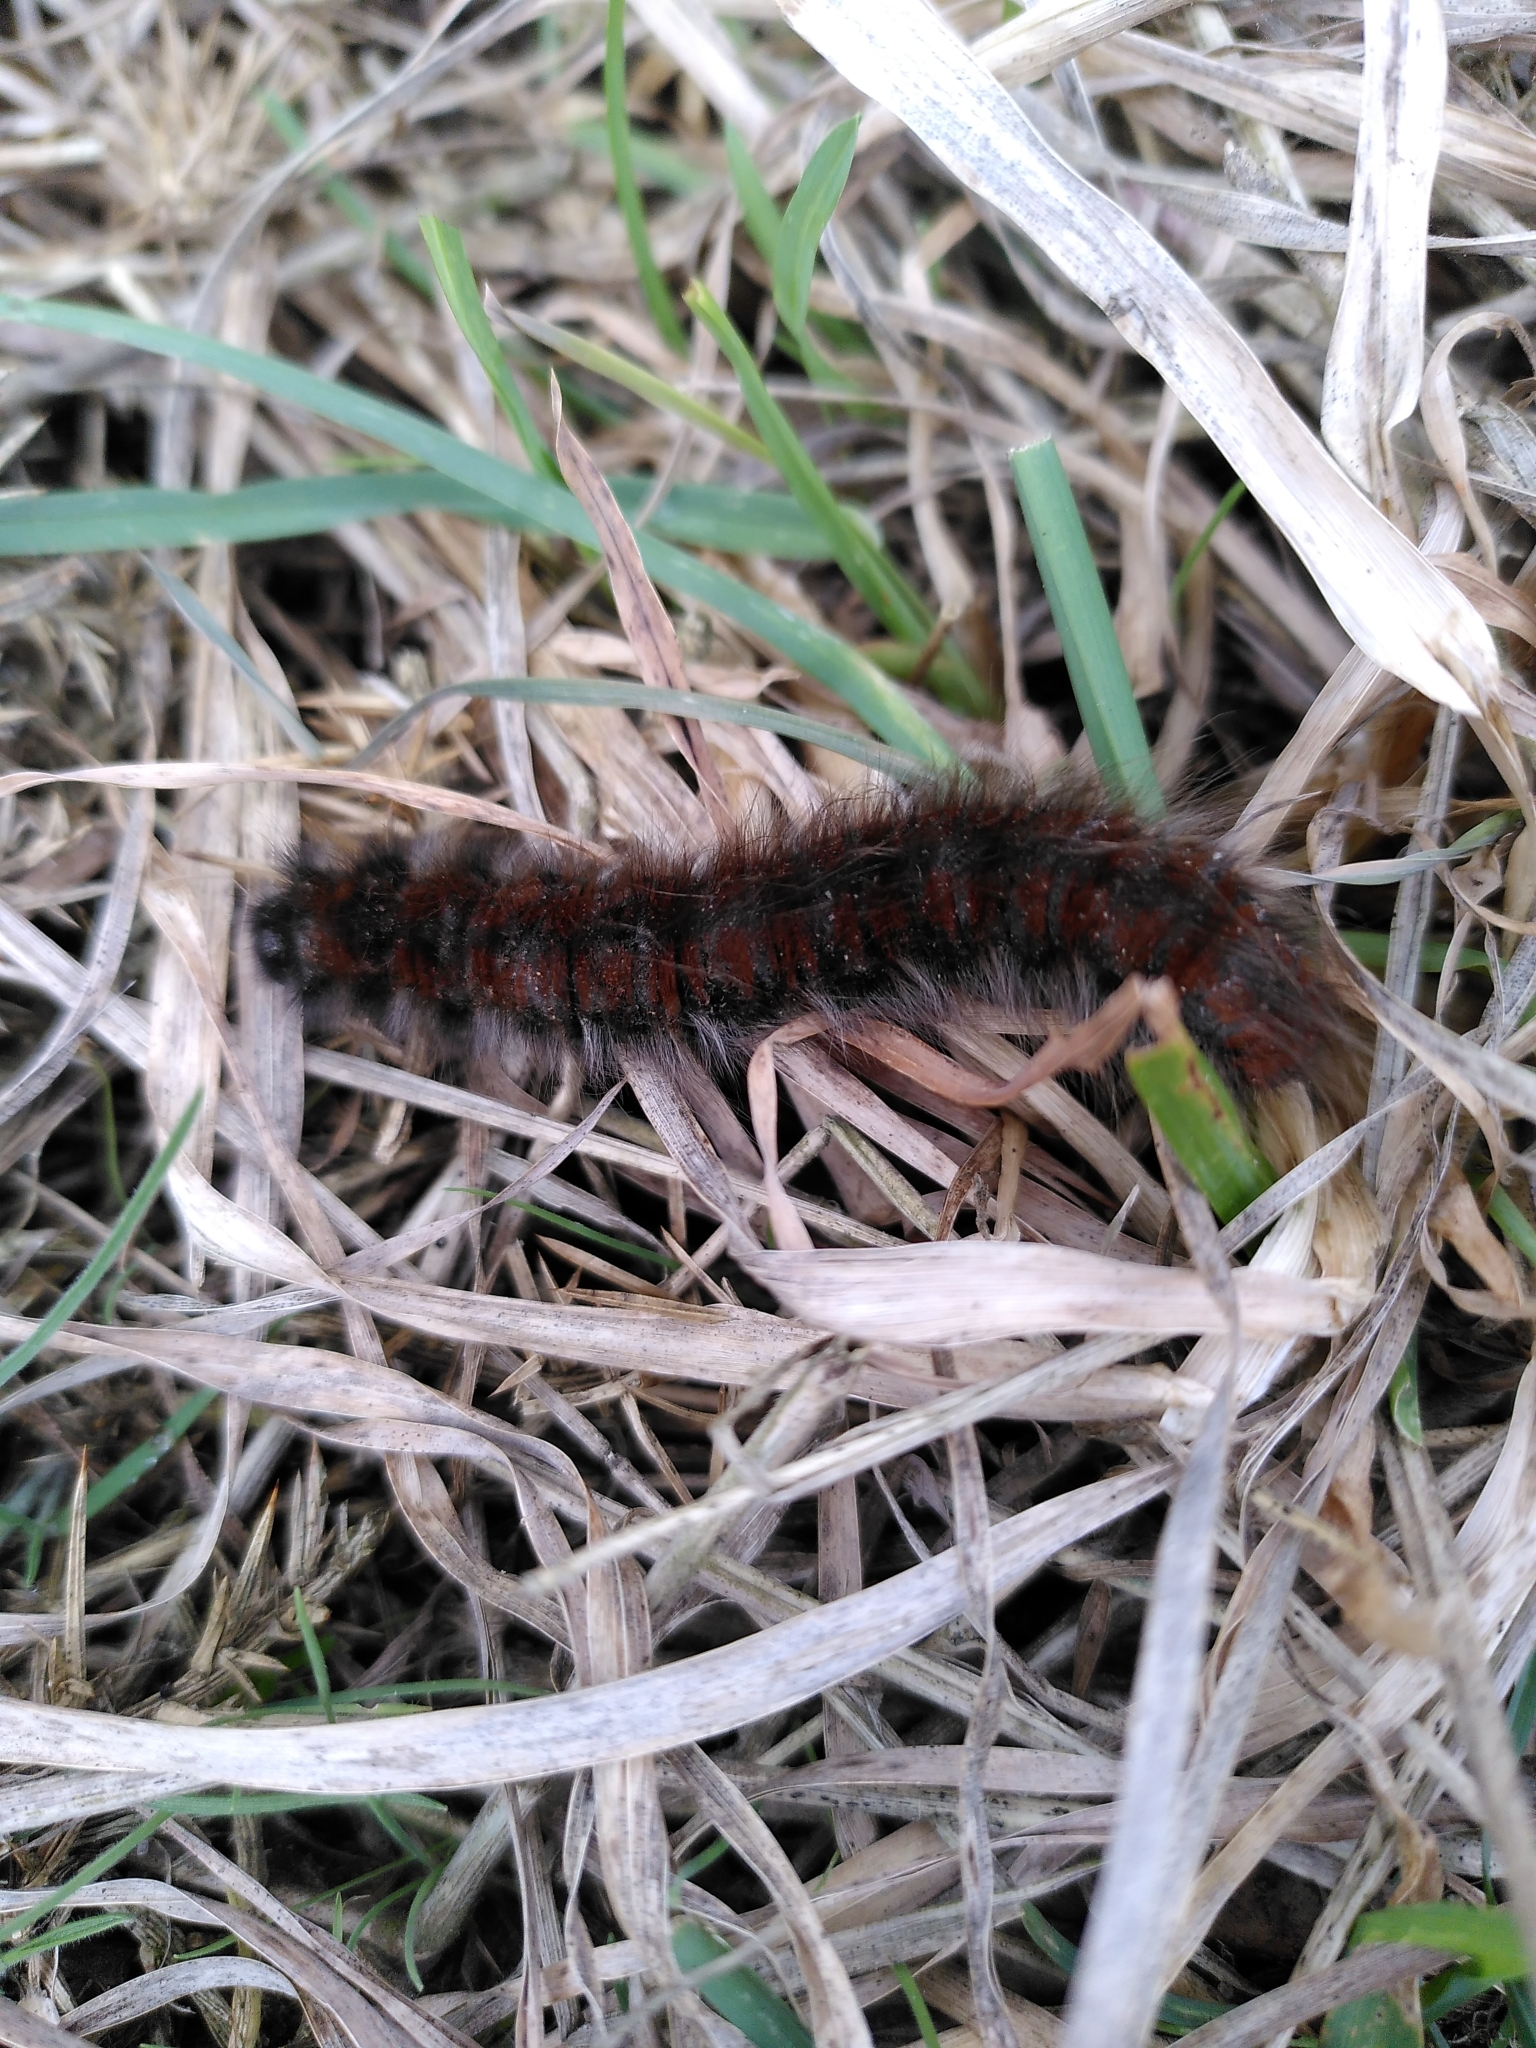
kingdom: Animalia
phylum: Arthropoda
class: Insecta
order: Lepidoptera
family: Lasiocampidae
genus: Macrothylacia
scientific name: Macrothylacia rubi
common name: Fox moth
